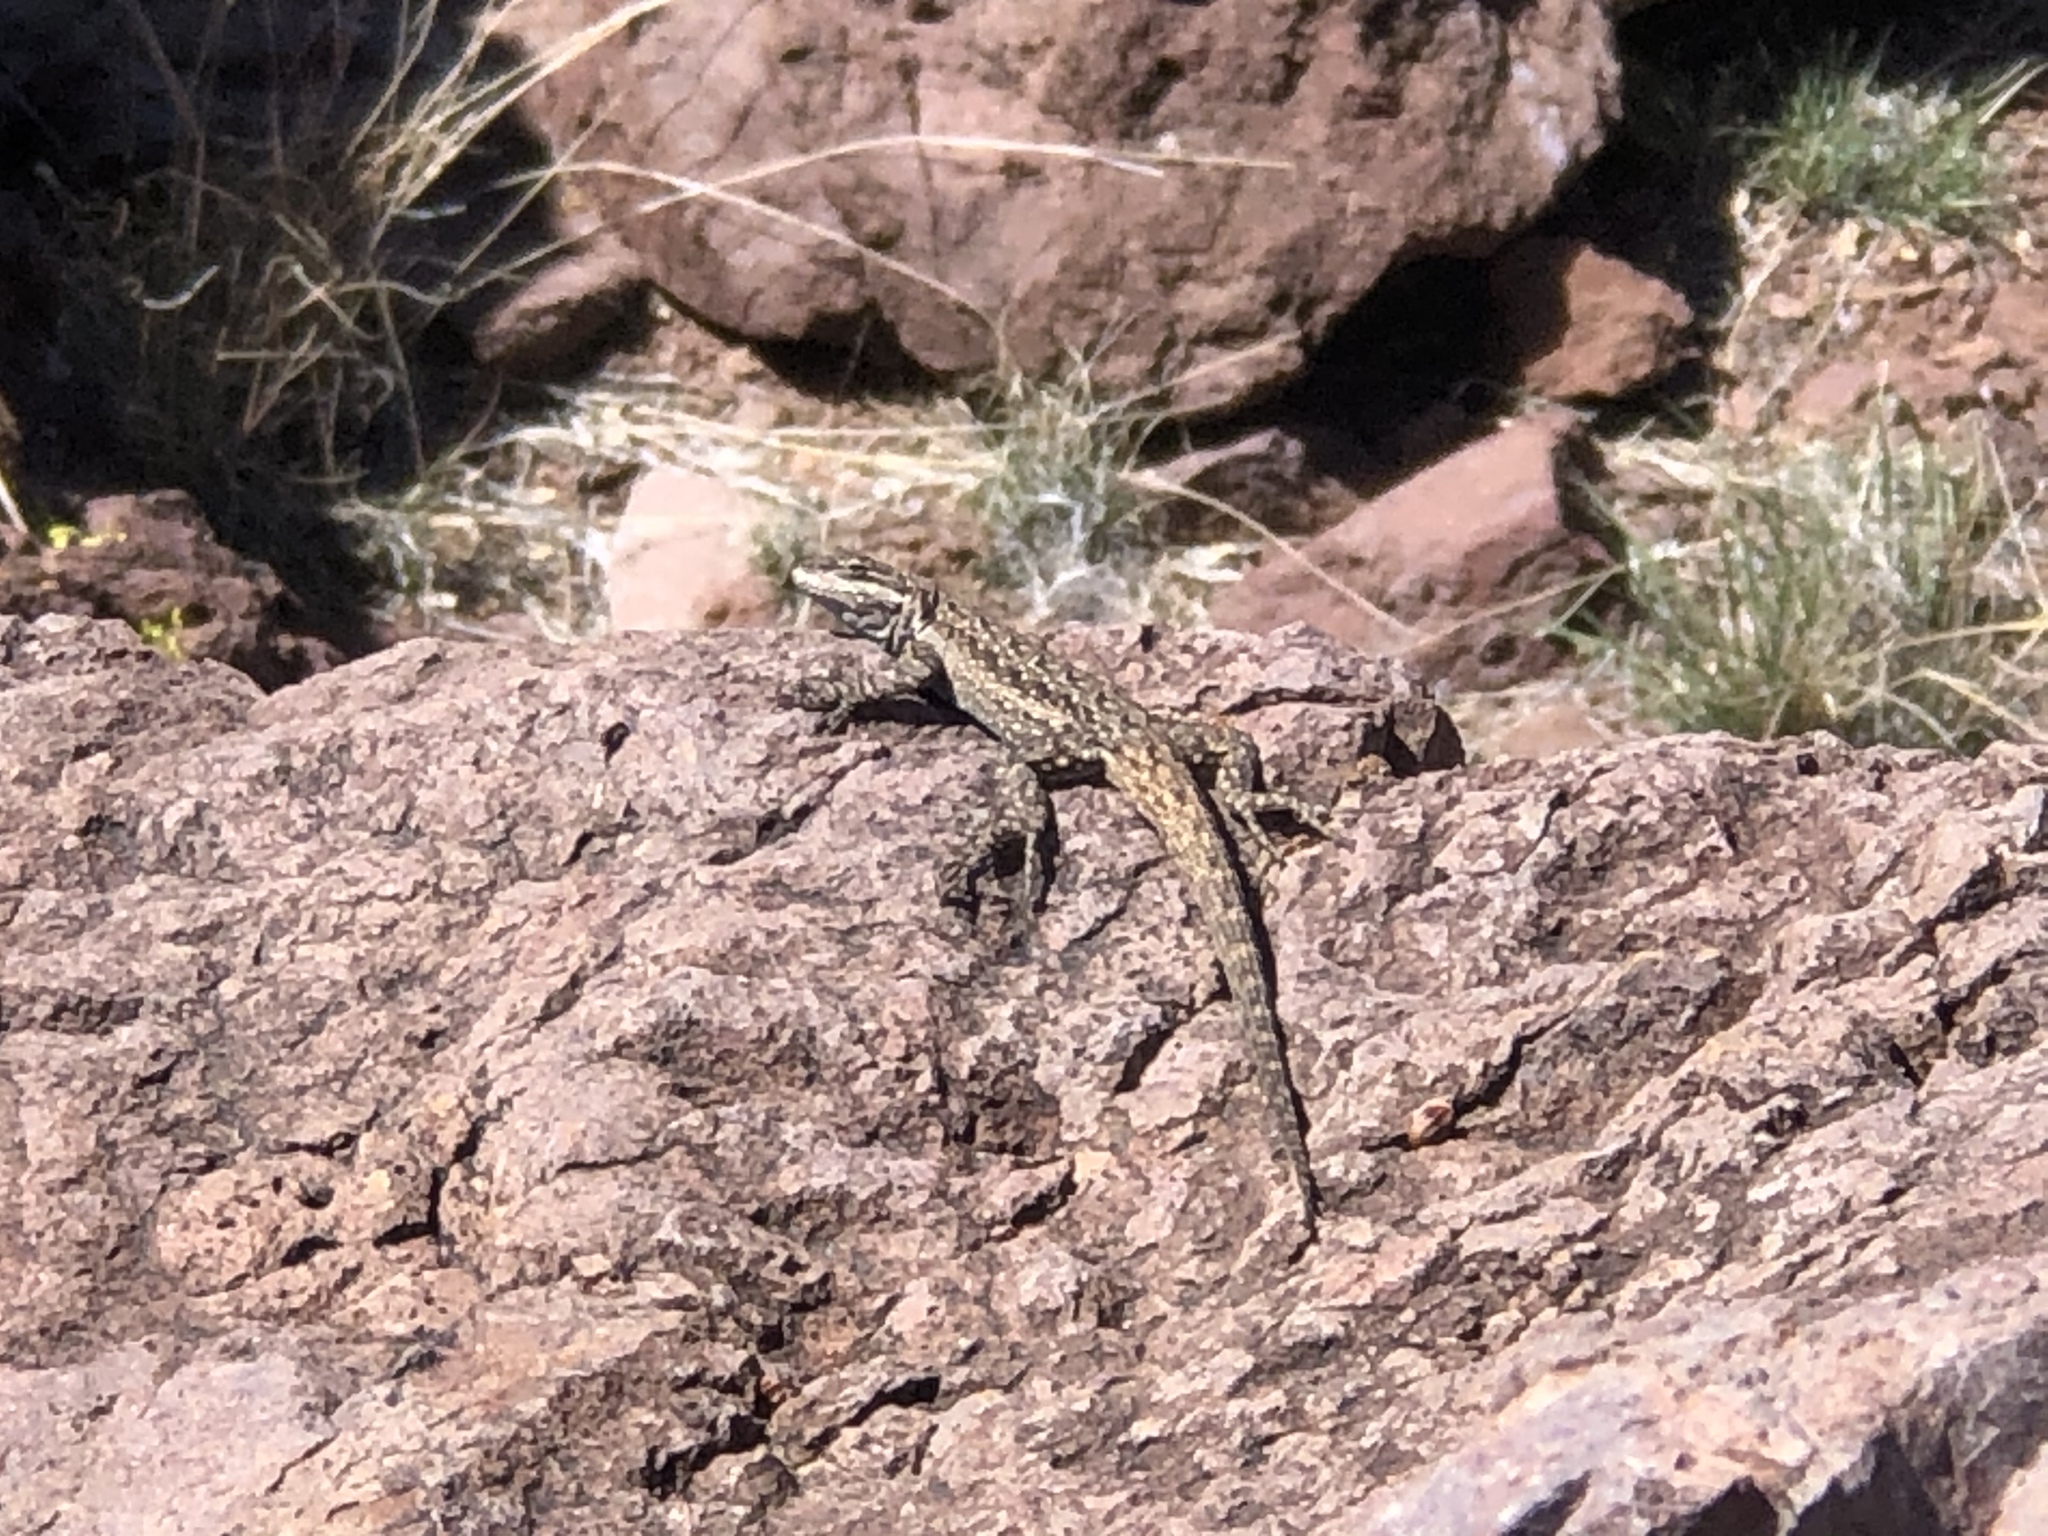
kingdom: Animalia
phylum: Chordata
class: Squamata
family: Phrynosomatidae
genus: Urosaurus
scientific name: Urosaurus ornatus
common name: Ornate tree lizard
